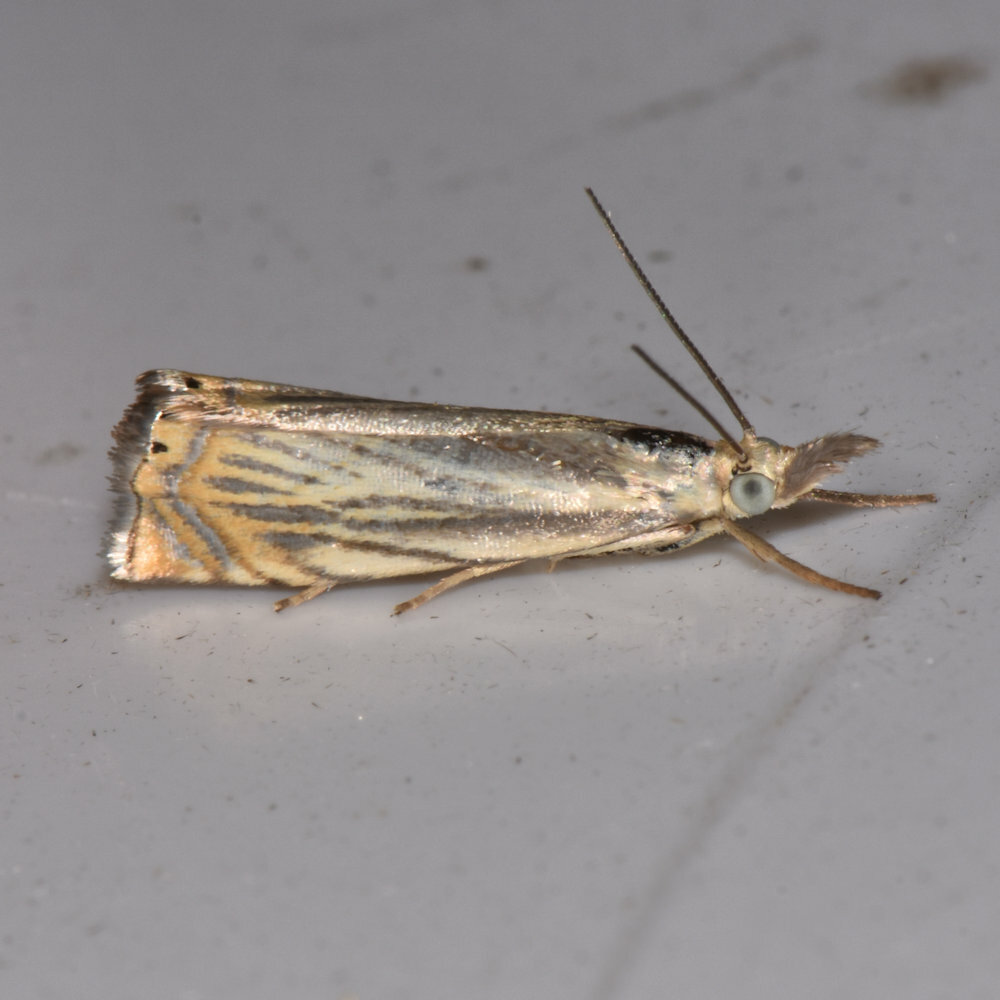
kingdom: Animalia
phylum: Arthropoda
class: Insecta
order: Lepidoptera
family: Crambidae
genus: Chrysoteuchia
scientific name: Chrysoteuchia topiarius
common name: Topiary grass-veneer
